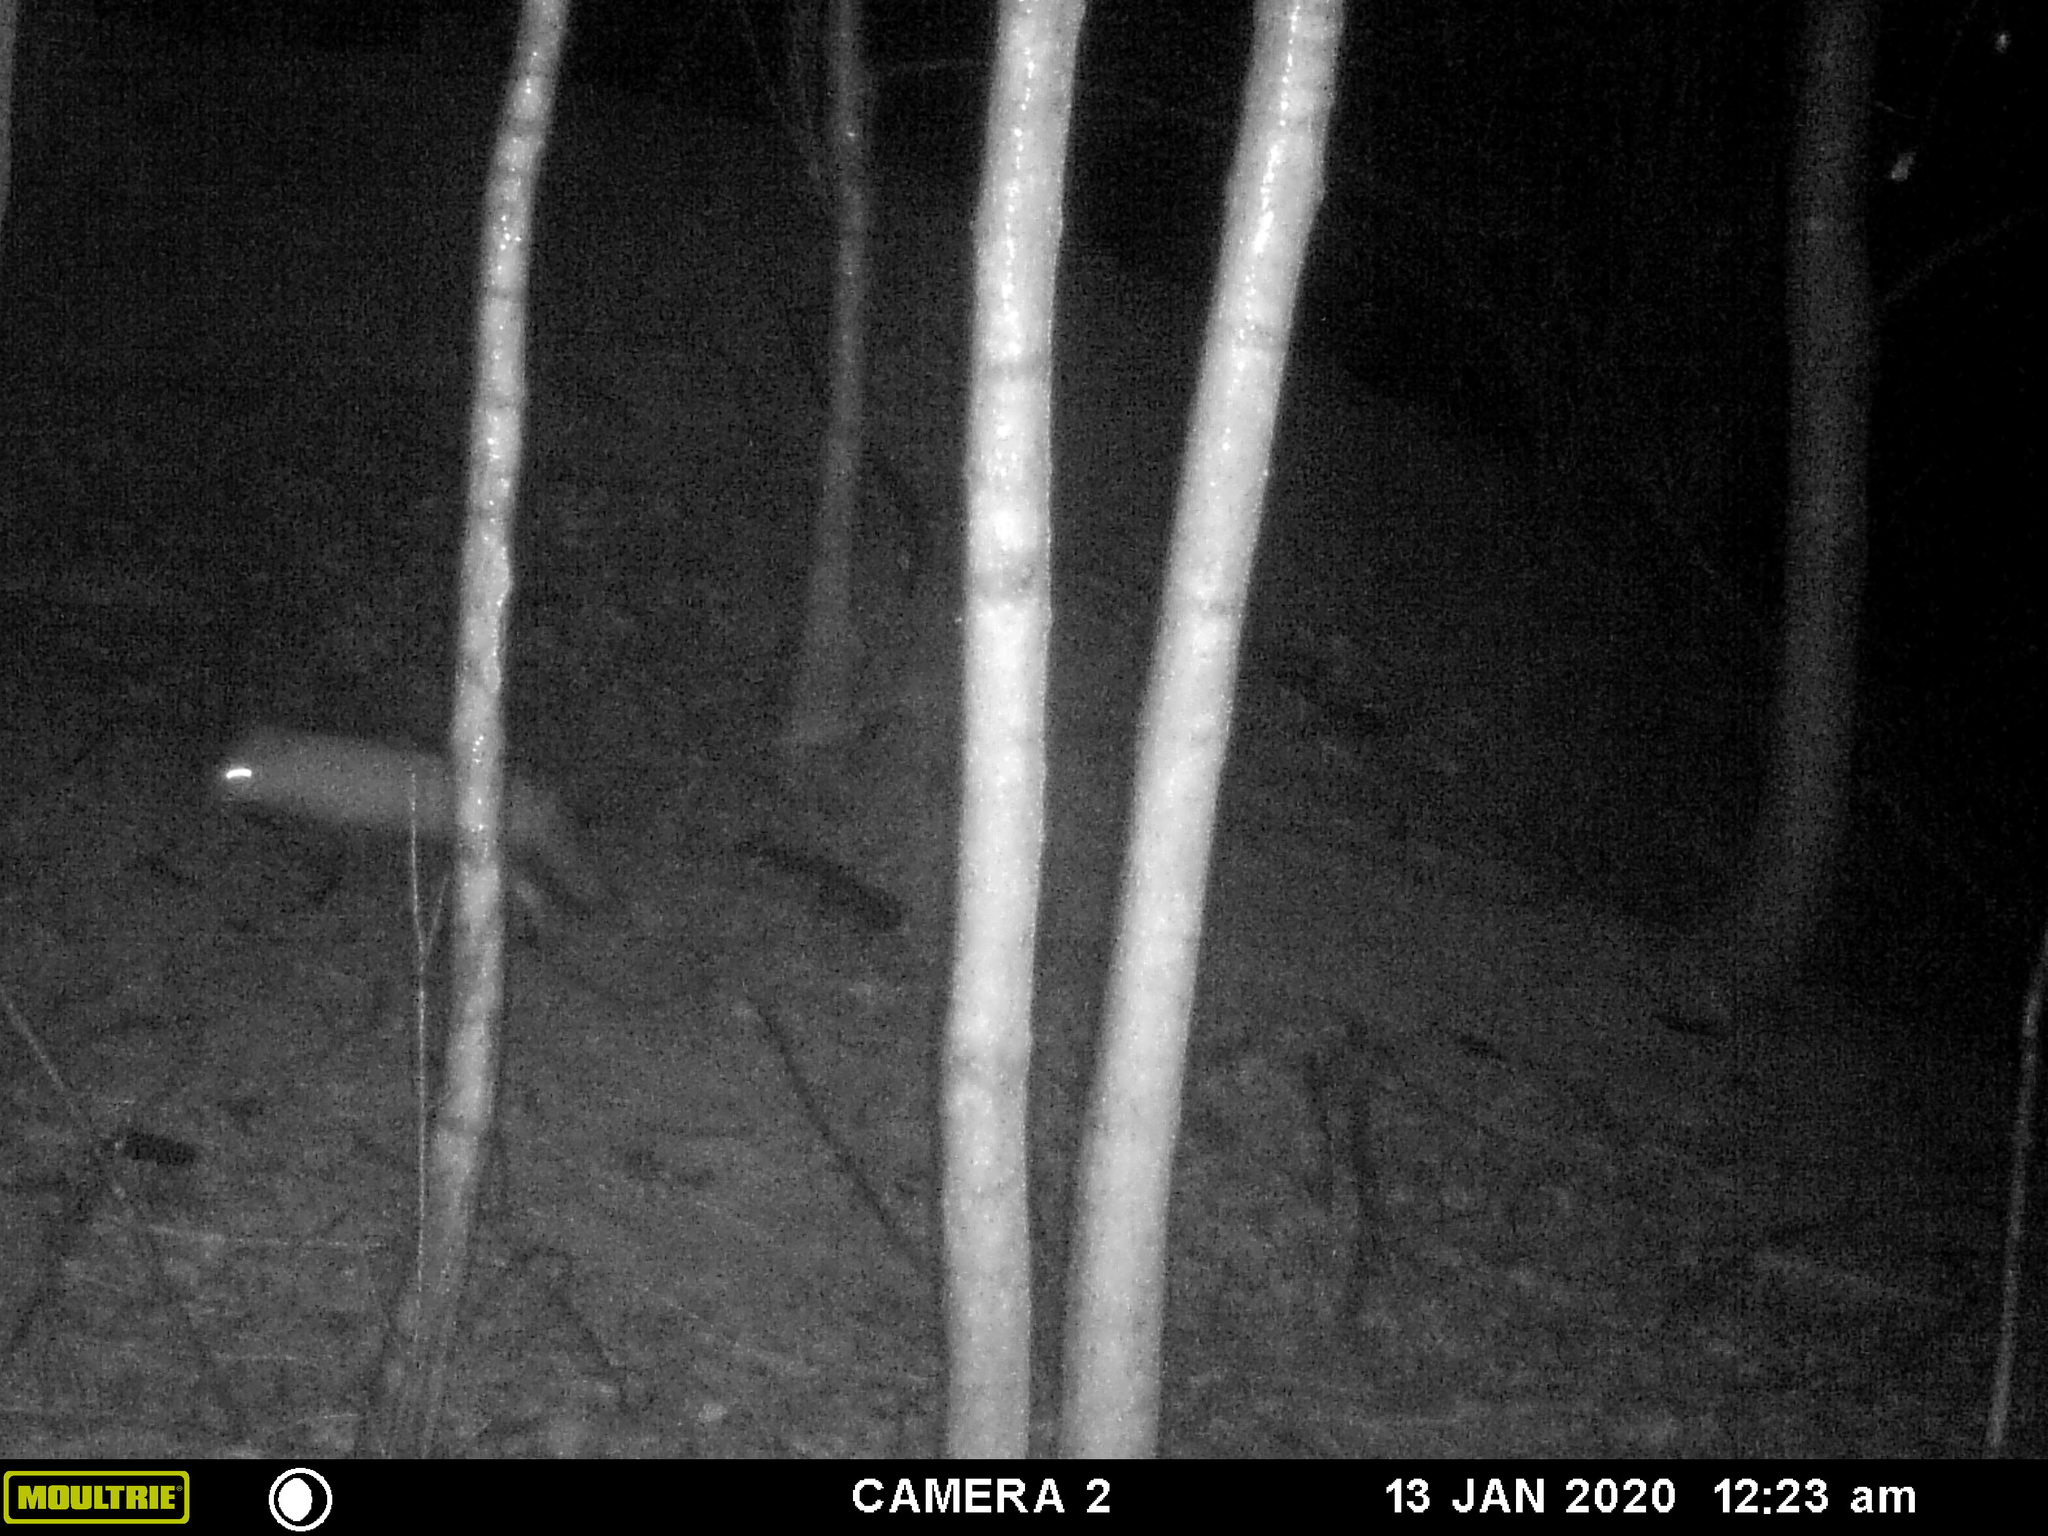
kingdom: Animalia
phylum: Chordata
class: Mammalia
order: Carnivora
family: Canidae
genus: Vulpes
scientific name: Vulpes vulpes
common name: Red fox
